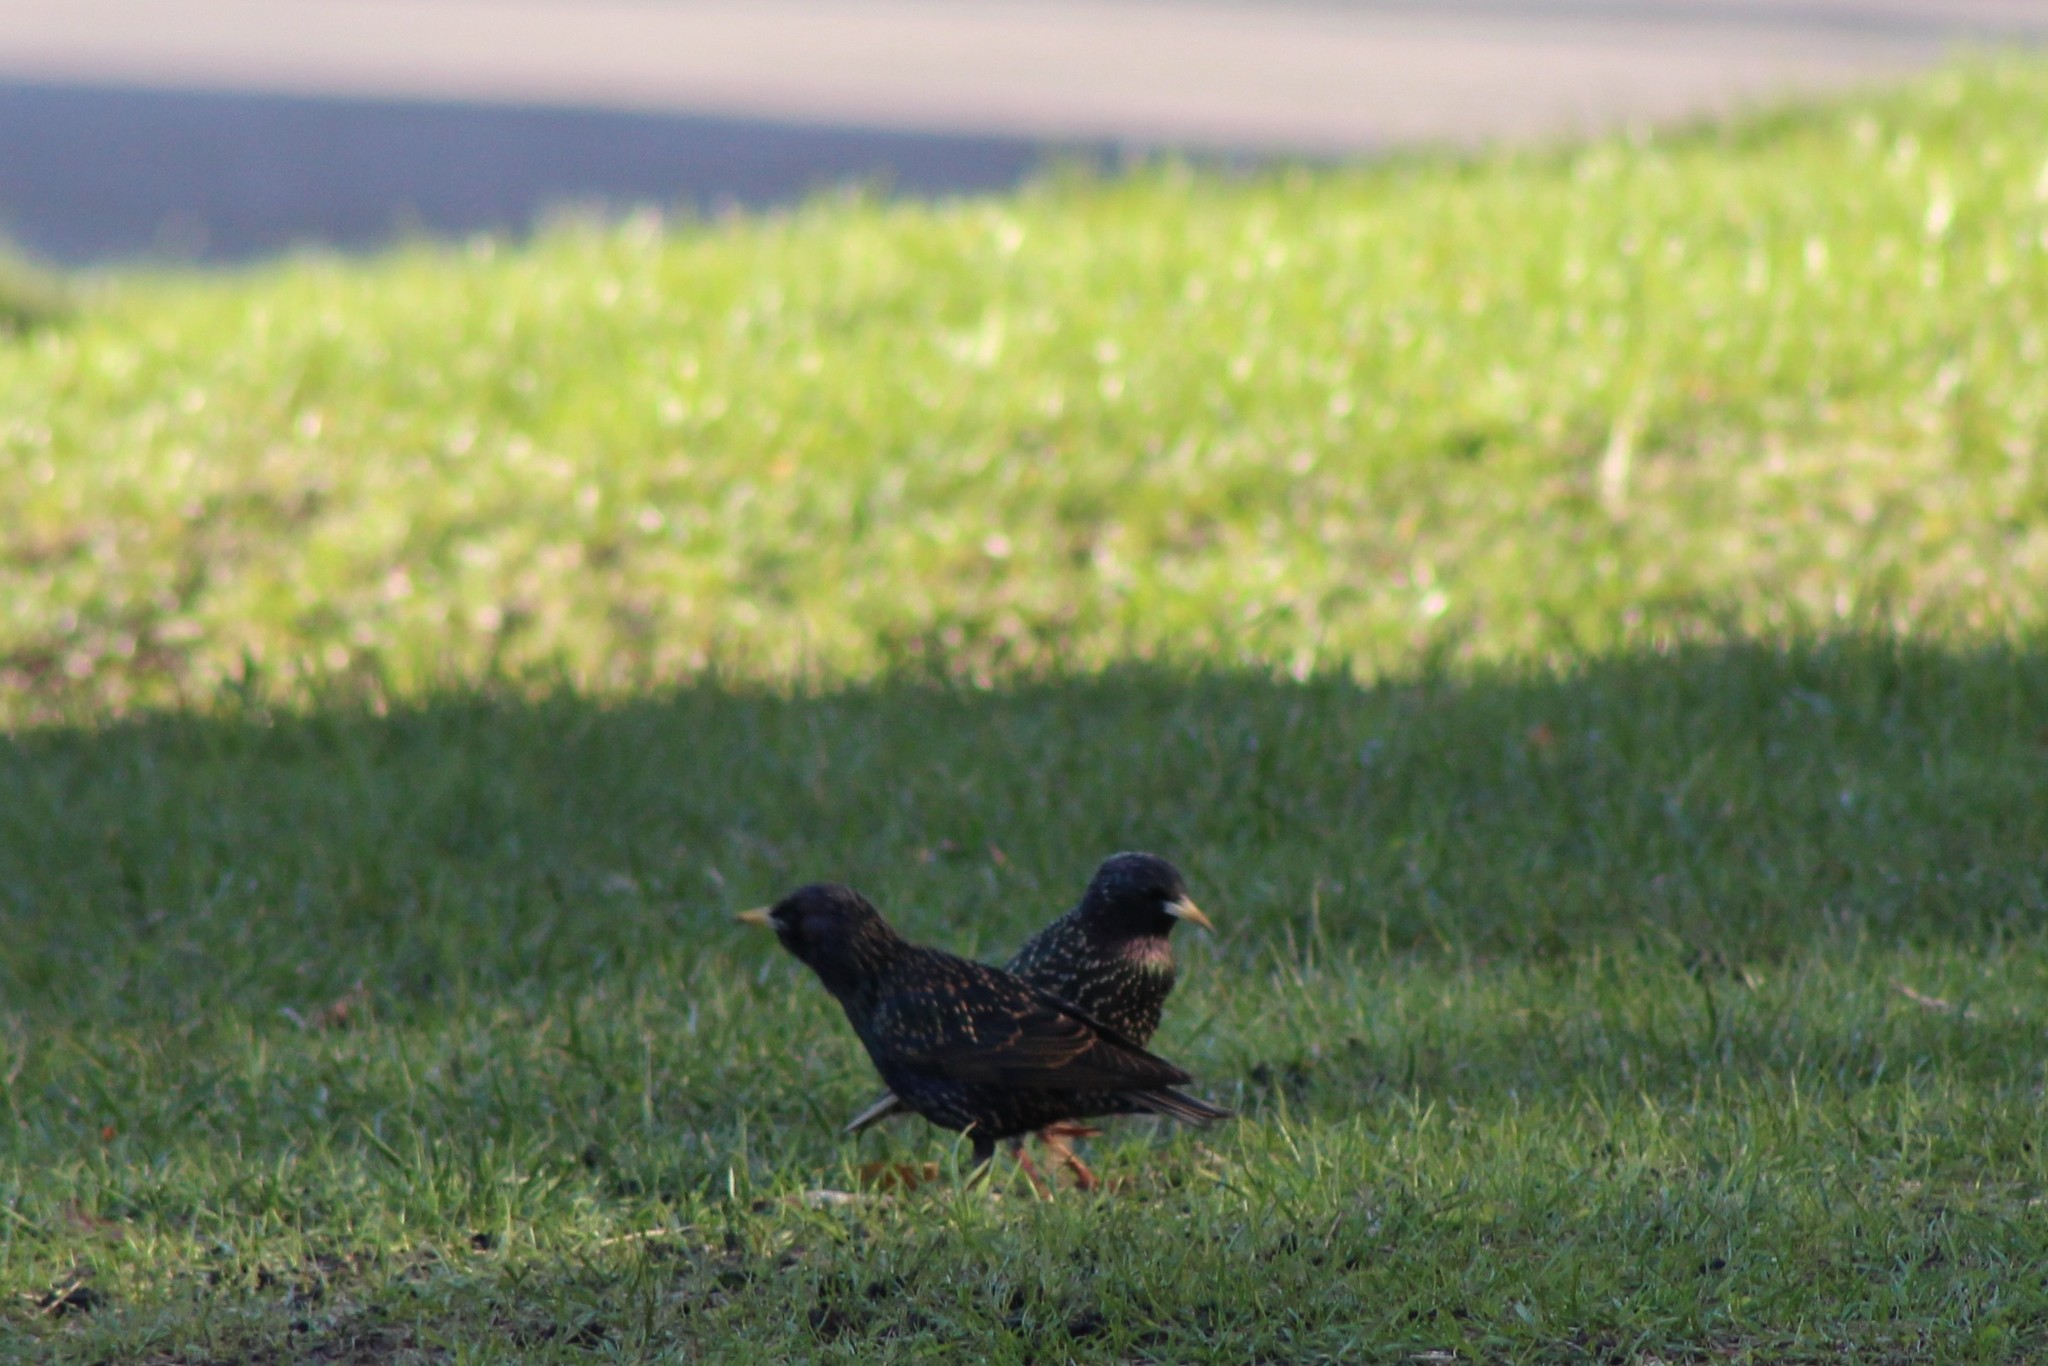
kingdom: Animalia
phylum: Chordata
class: Aves
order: Passeriformes
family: Sturnidae
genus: Sturnus
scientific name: Sturnus vulgaris
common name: Common starling
